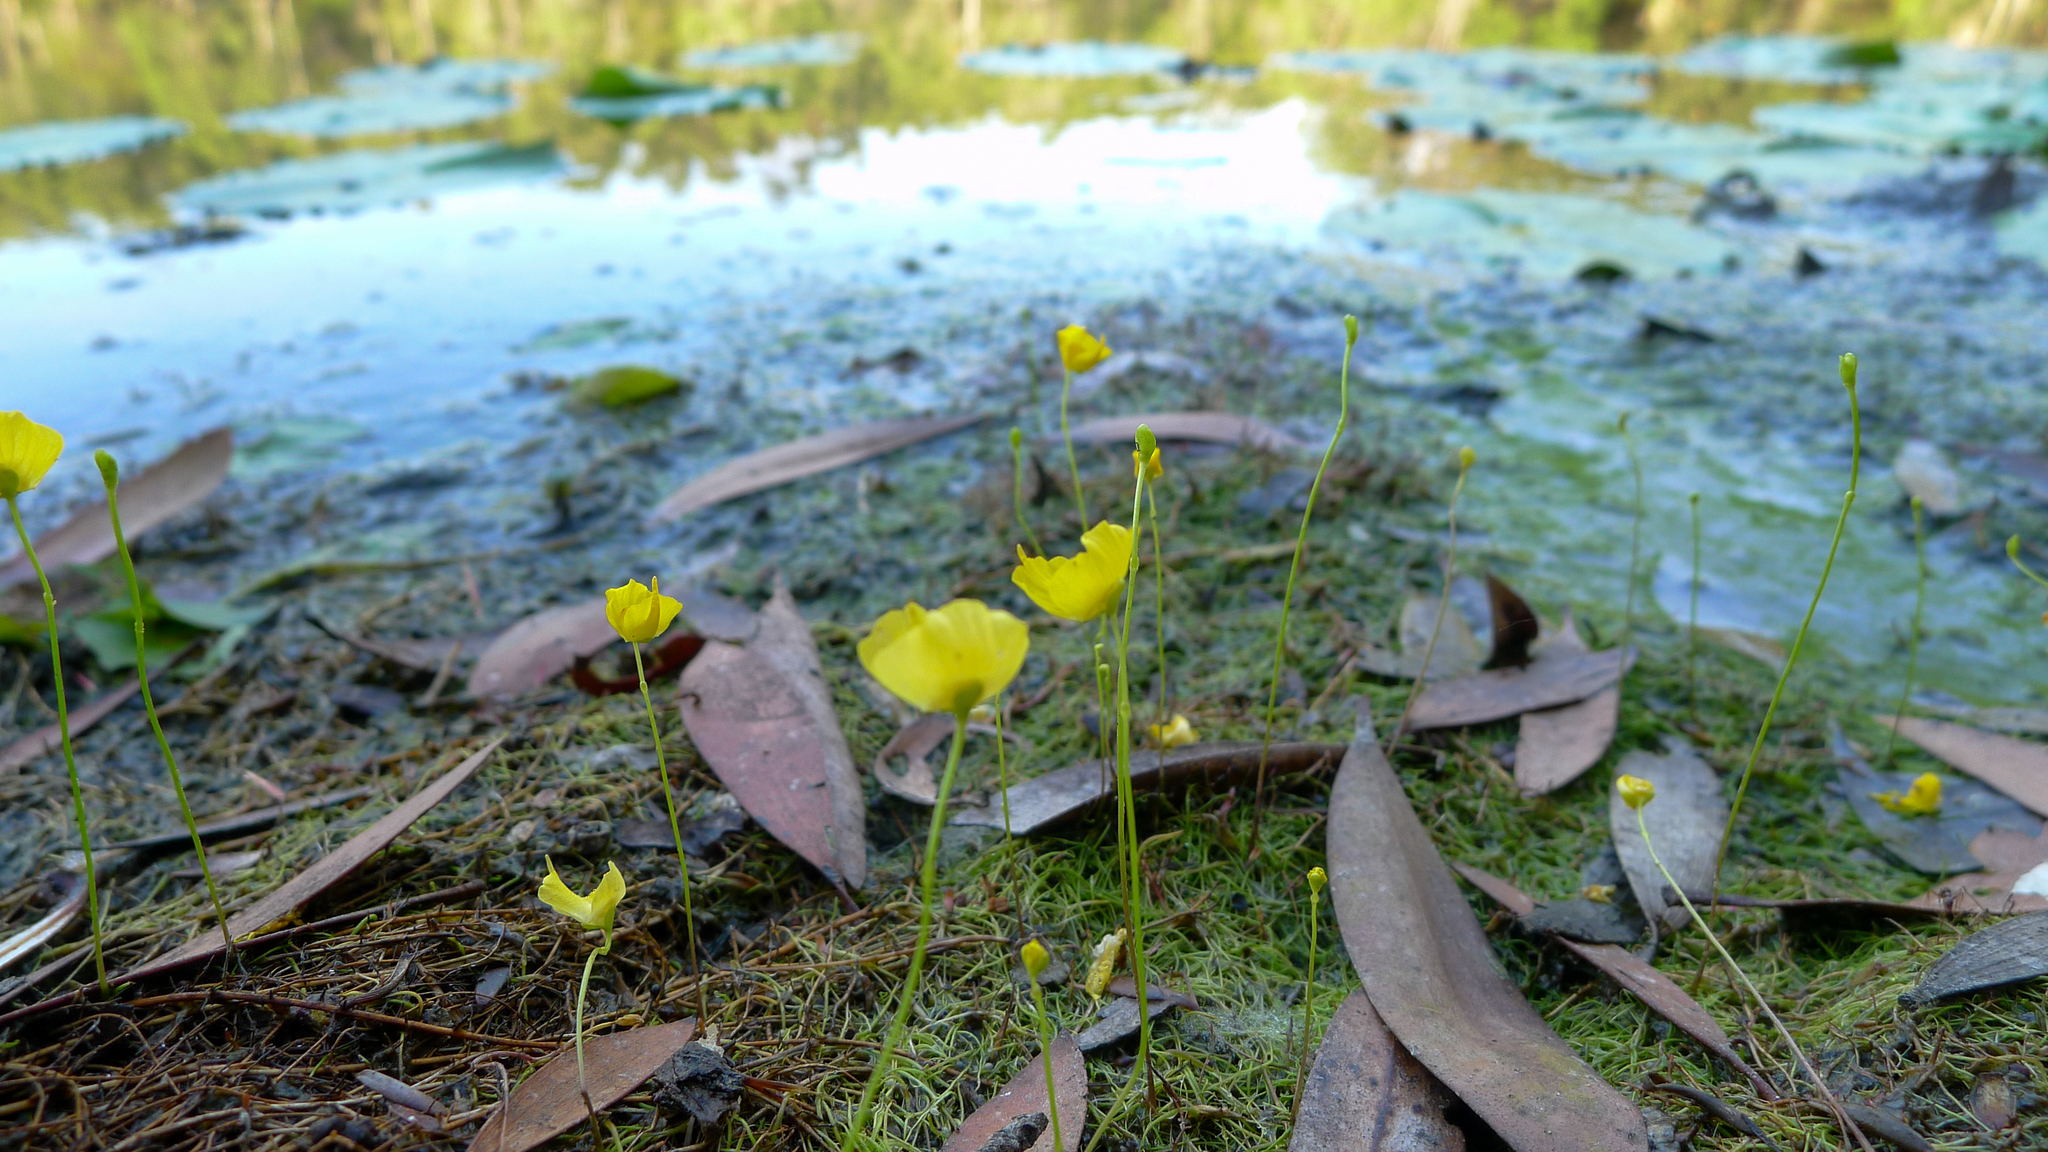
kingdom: Plantae
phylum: Tracheophyta
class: Magnoliopsida
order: Lamiales
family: Lentibulariaceae
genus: Utricularia
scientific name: Utricularia gibba
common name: Humped bladderwort
